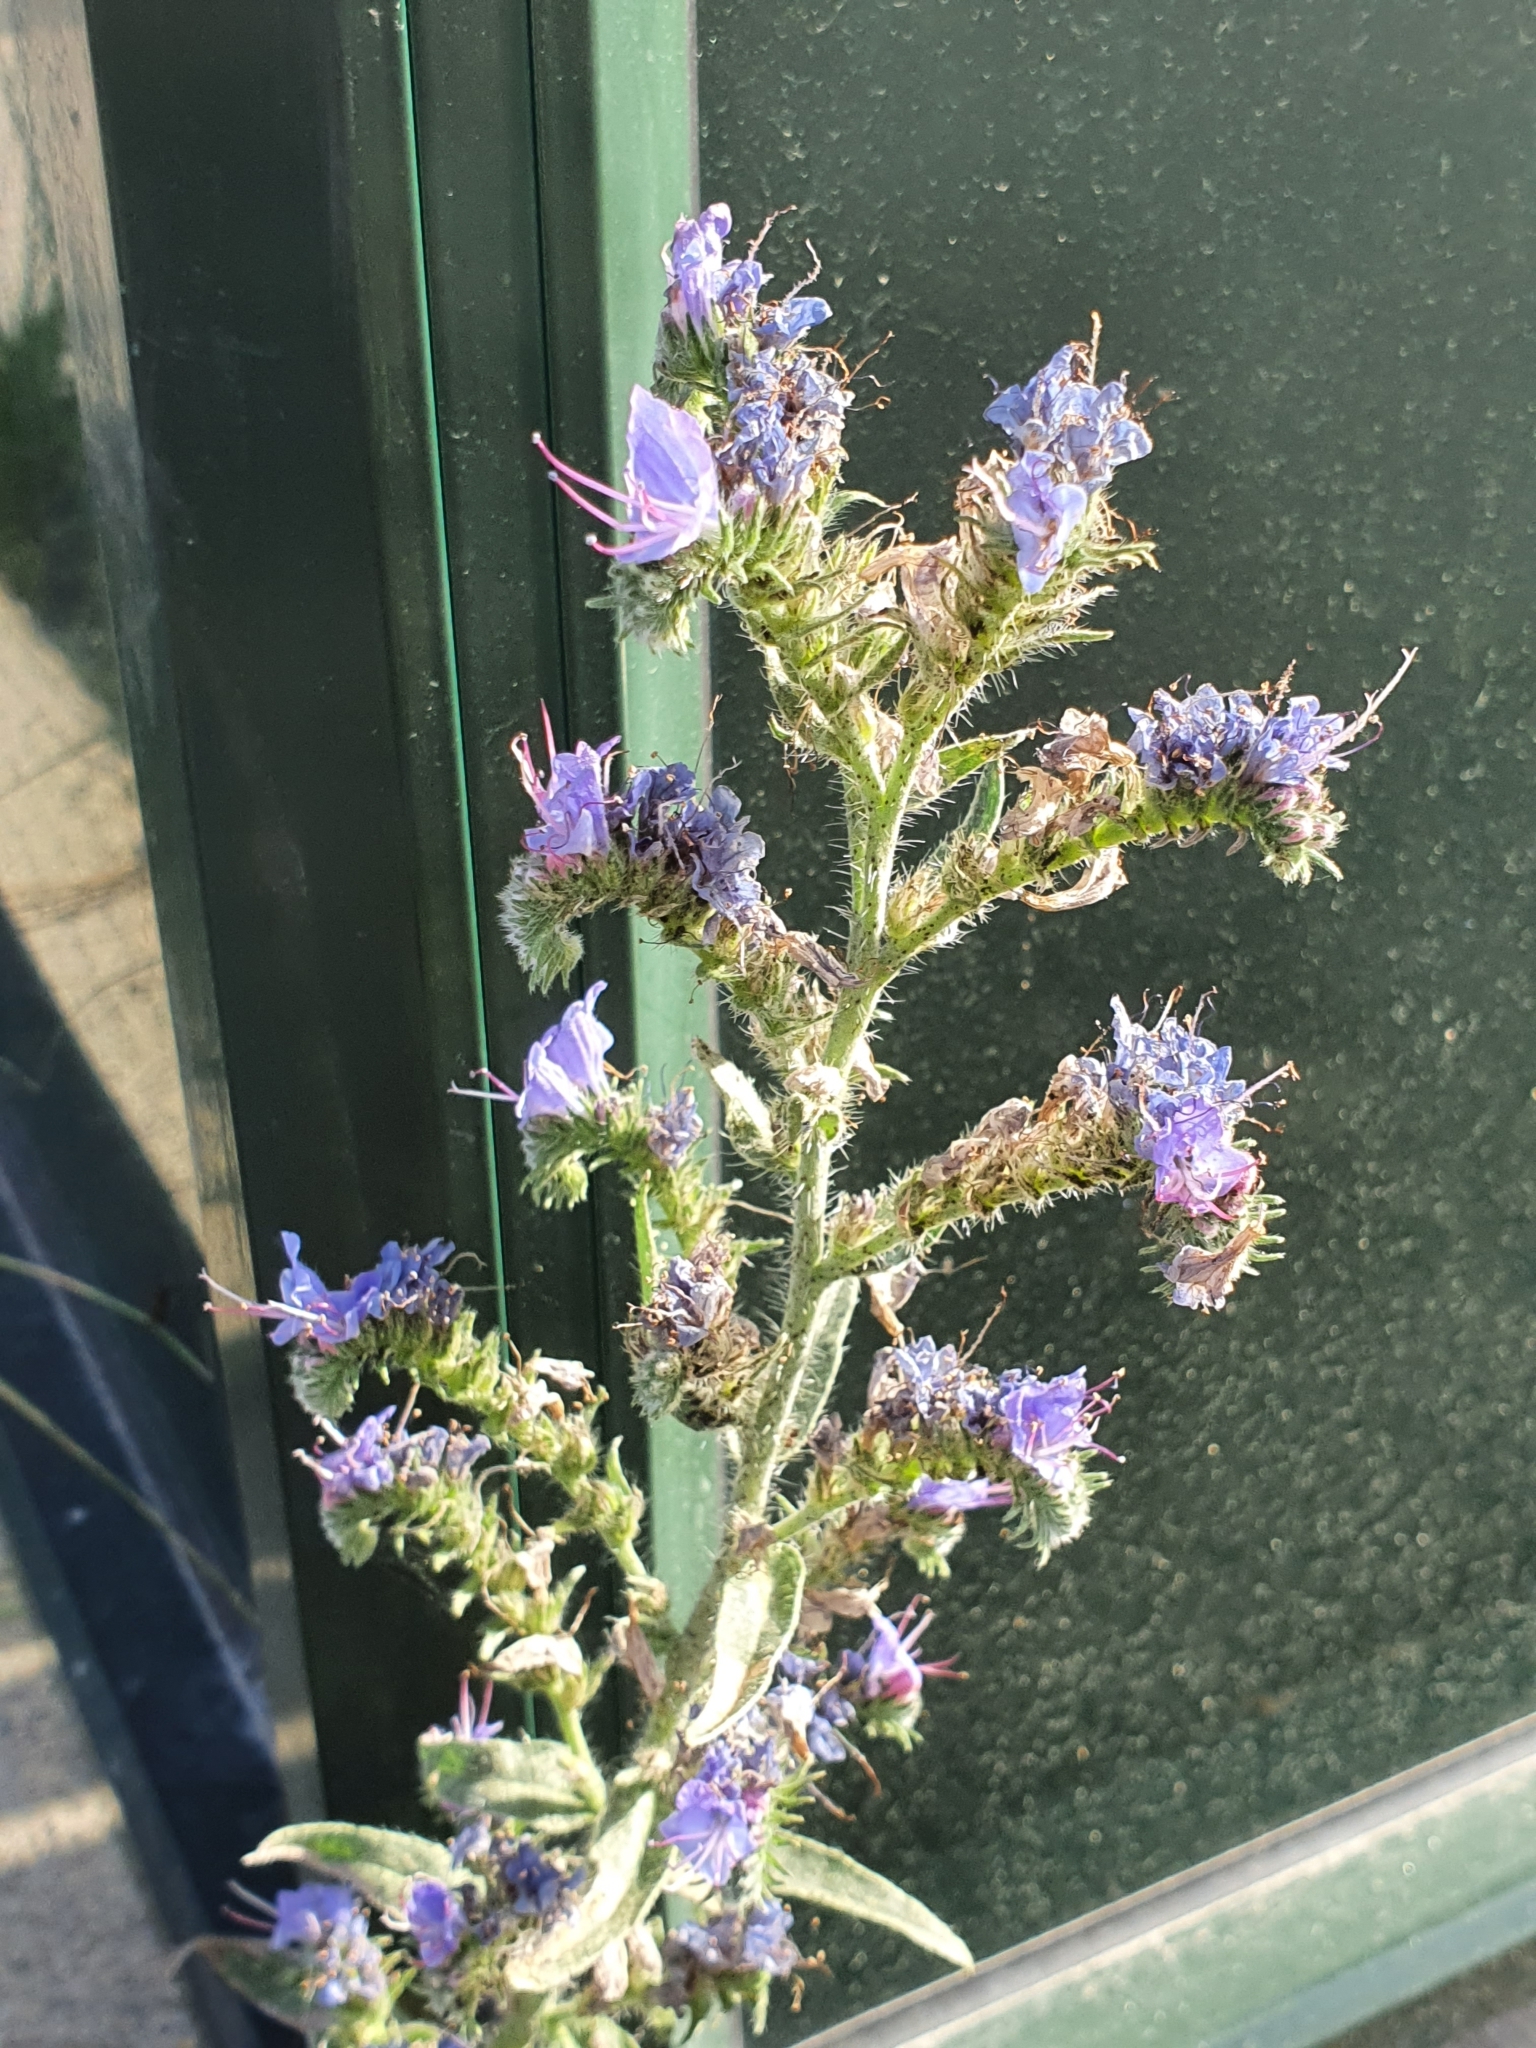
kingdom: Plantae
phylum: Tracheophyta
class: Magnoliopsida
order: Boraginales
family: Boraginaceae
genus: Echium
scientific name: Echium vulgare
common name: Common viper's bugloss
